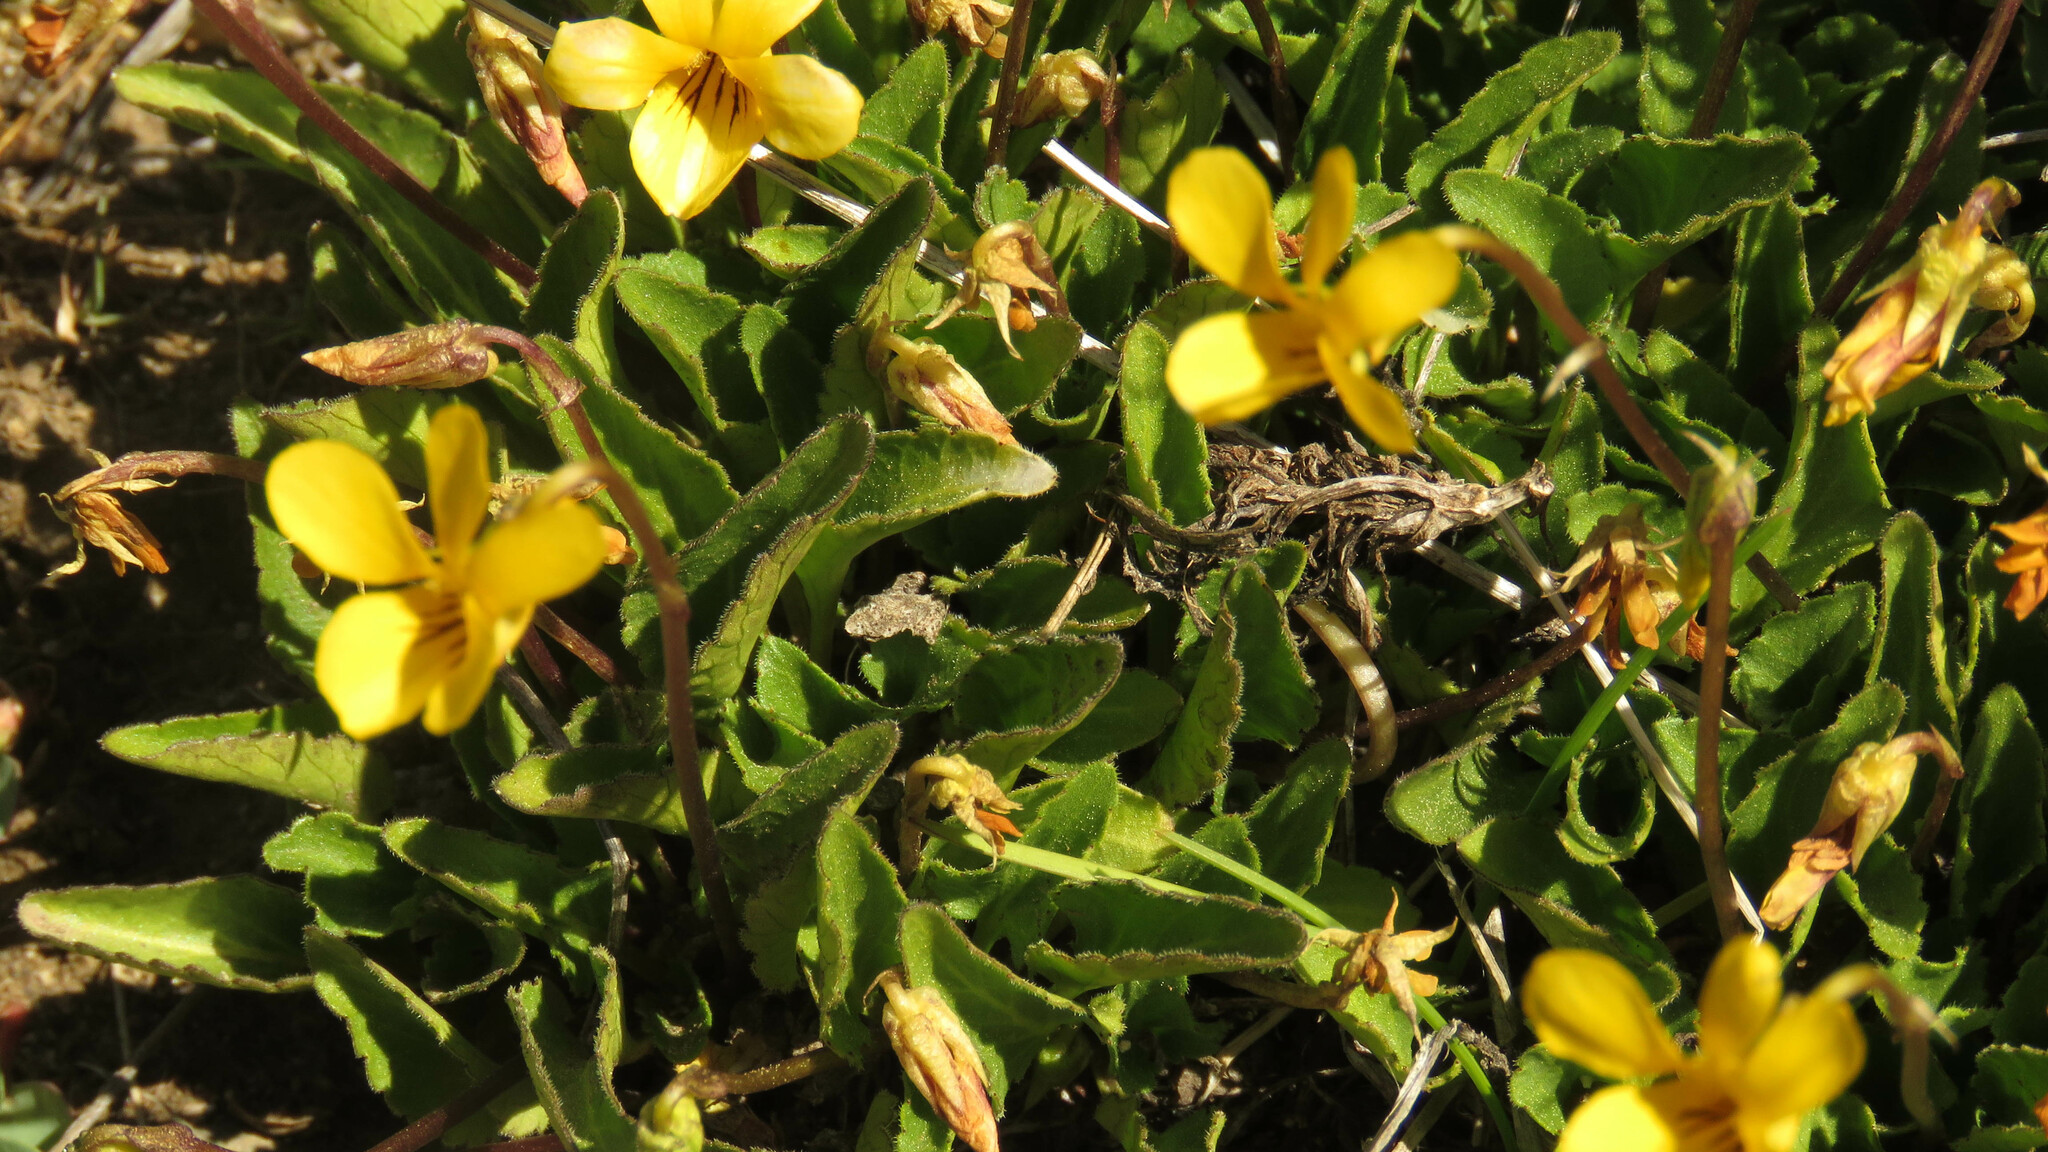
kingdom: Plantae
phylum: Tracheophyta
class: Magnoliopsida
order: Malpighiales
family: Violaceae
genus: Viola
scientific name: Viola maculata
